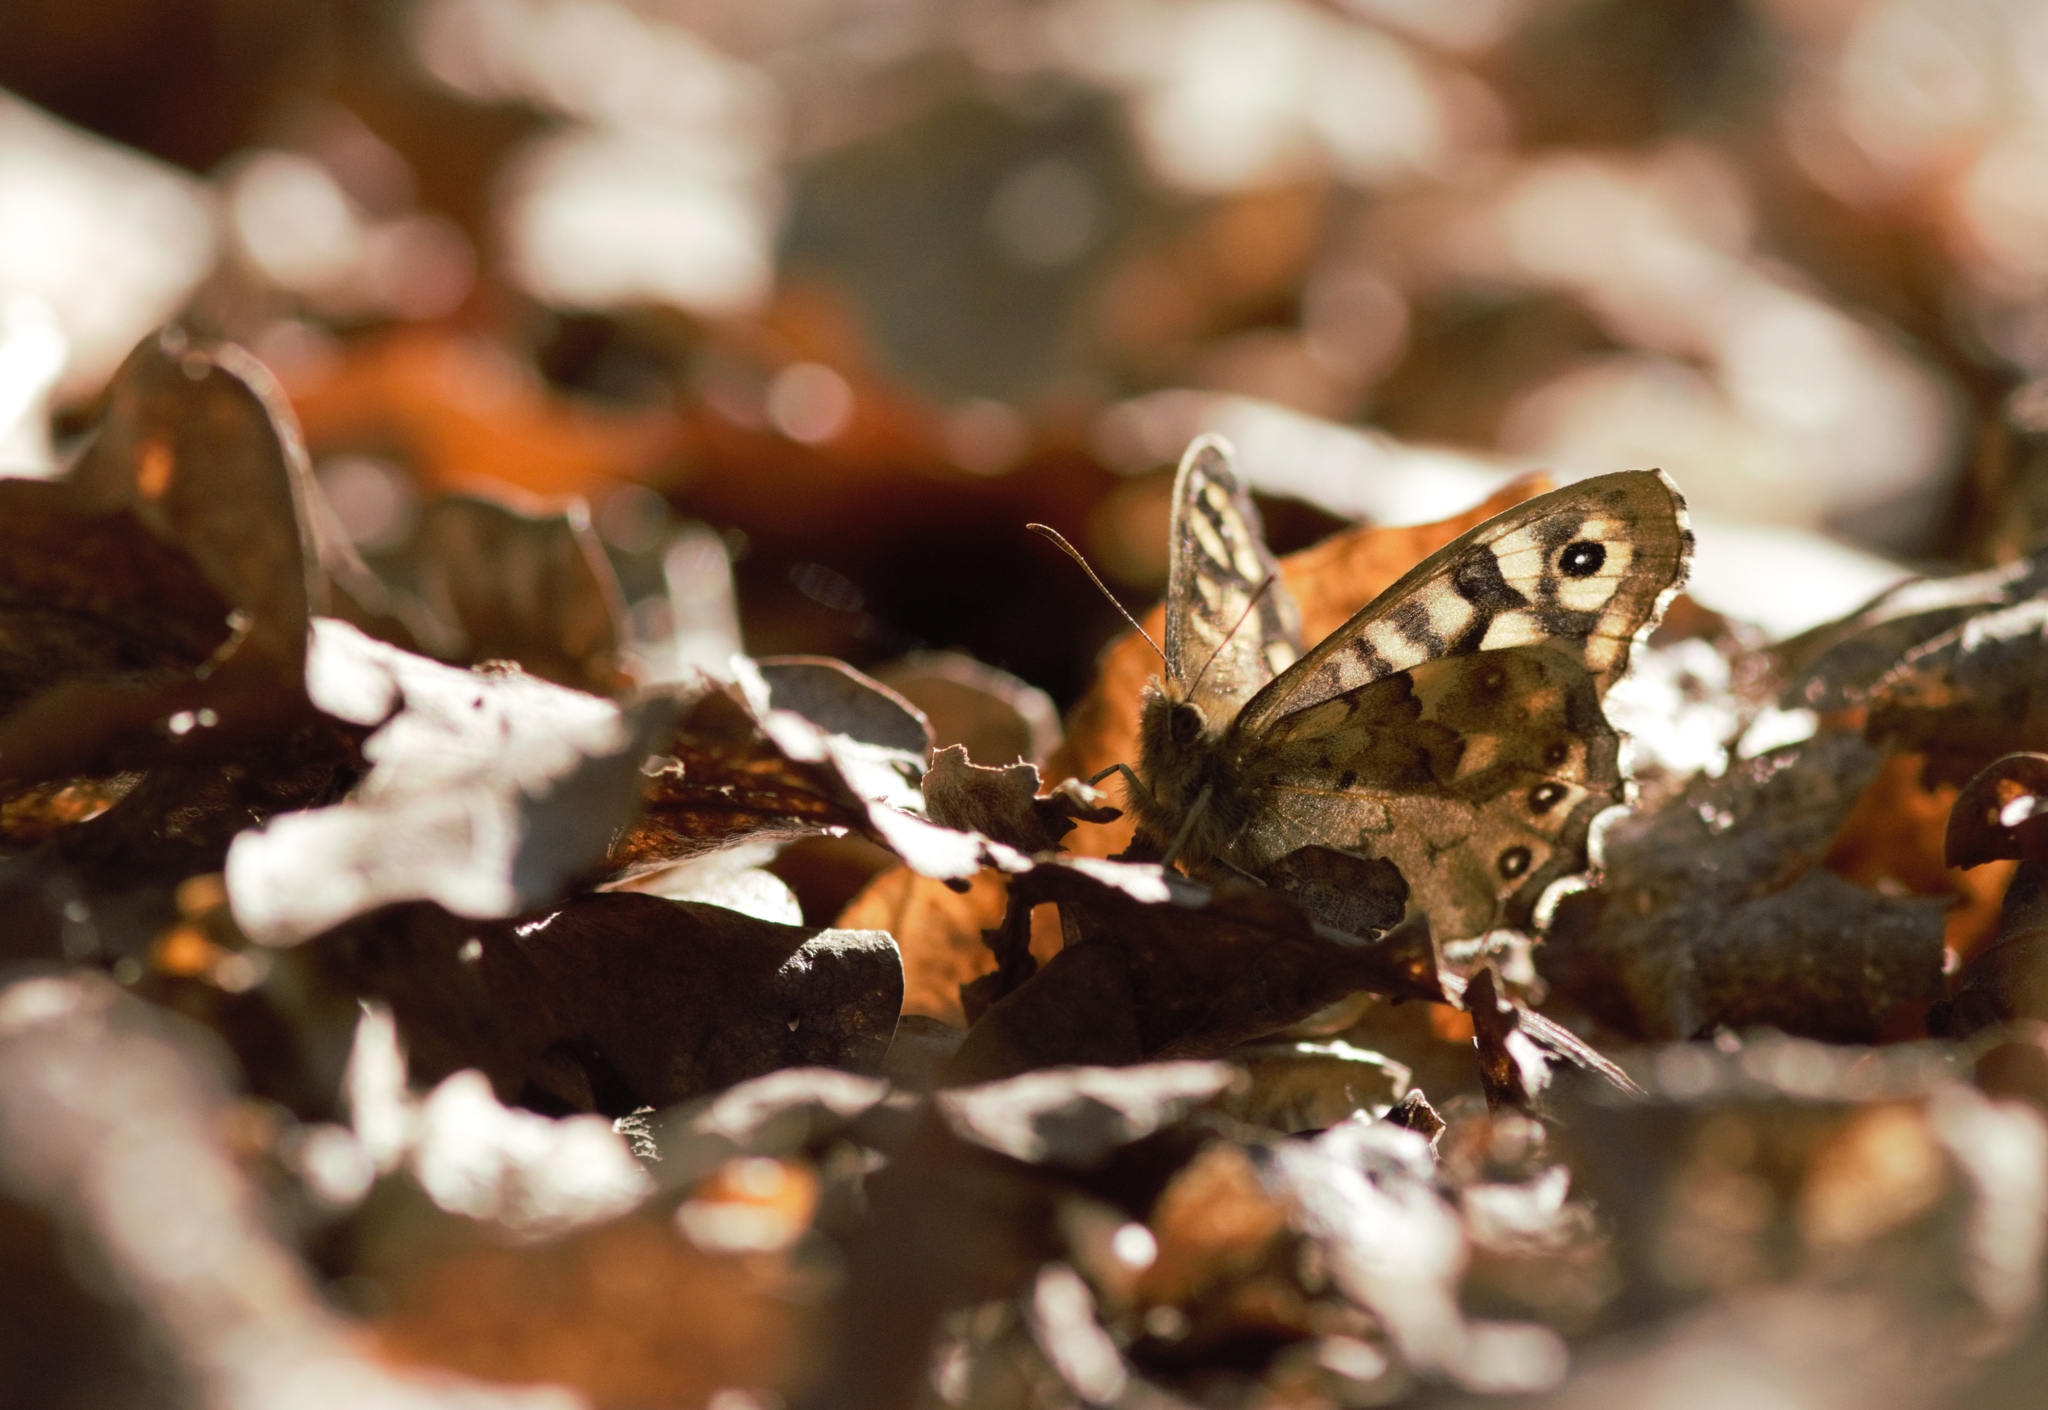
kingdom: Animalia
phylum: Arthropoda
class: Insecta
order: Lepidoptera
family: Nymphalidae
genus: Pararge
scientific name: Pararge aegeria
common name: Speckled wood
